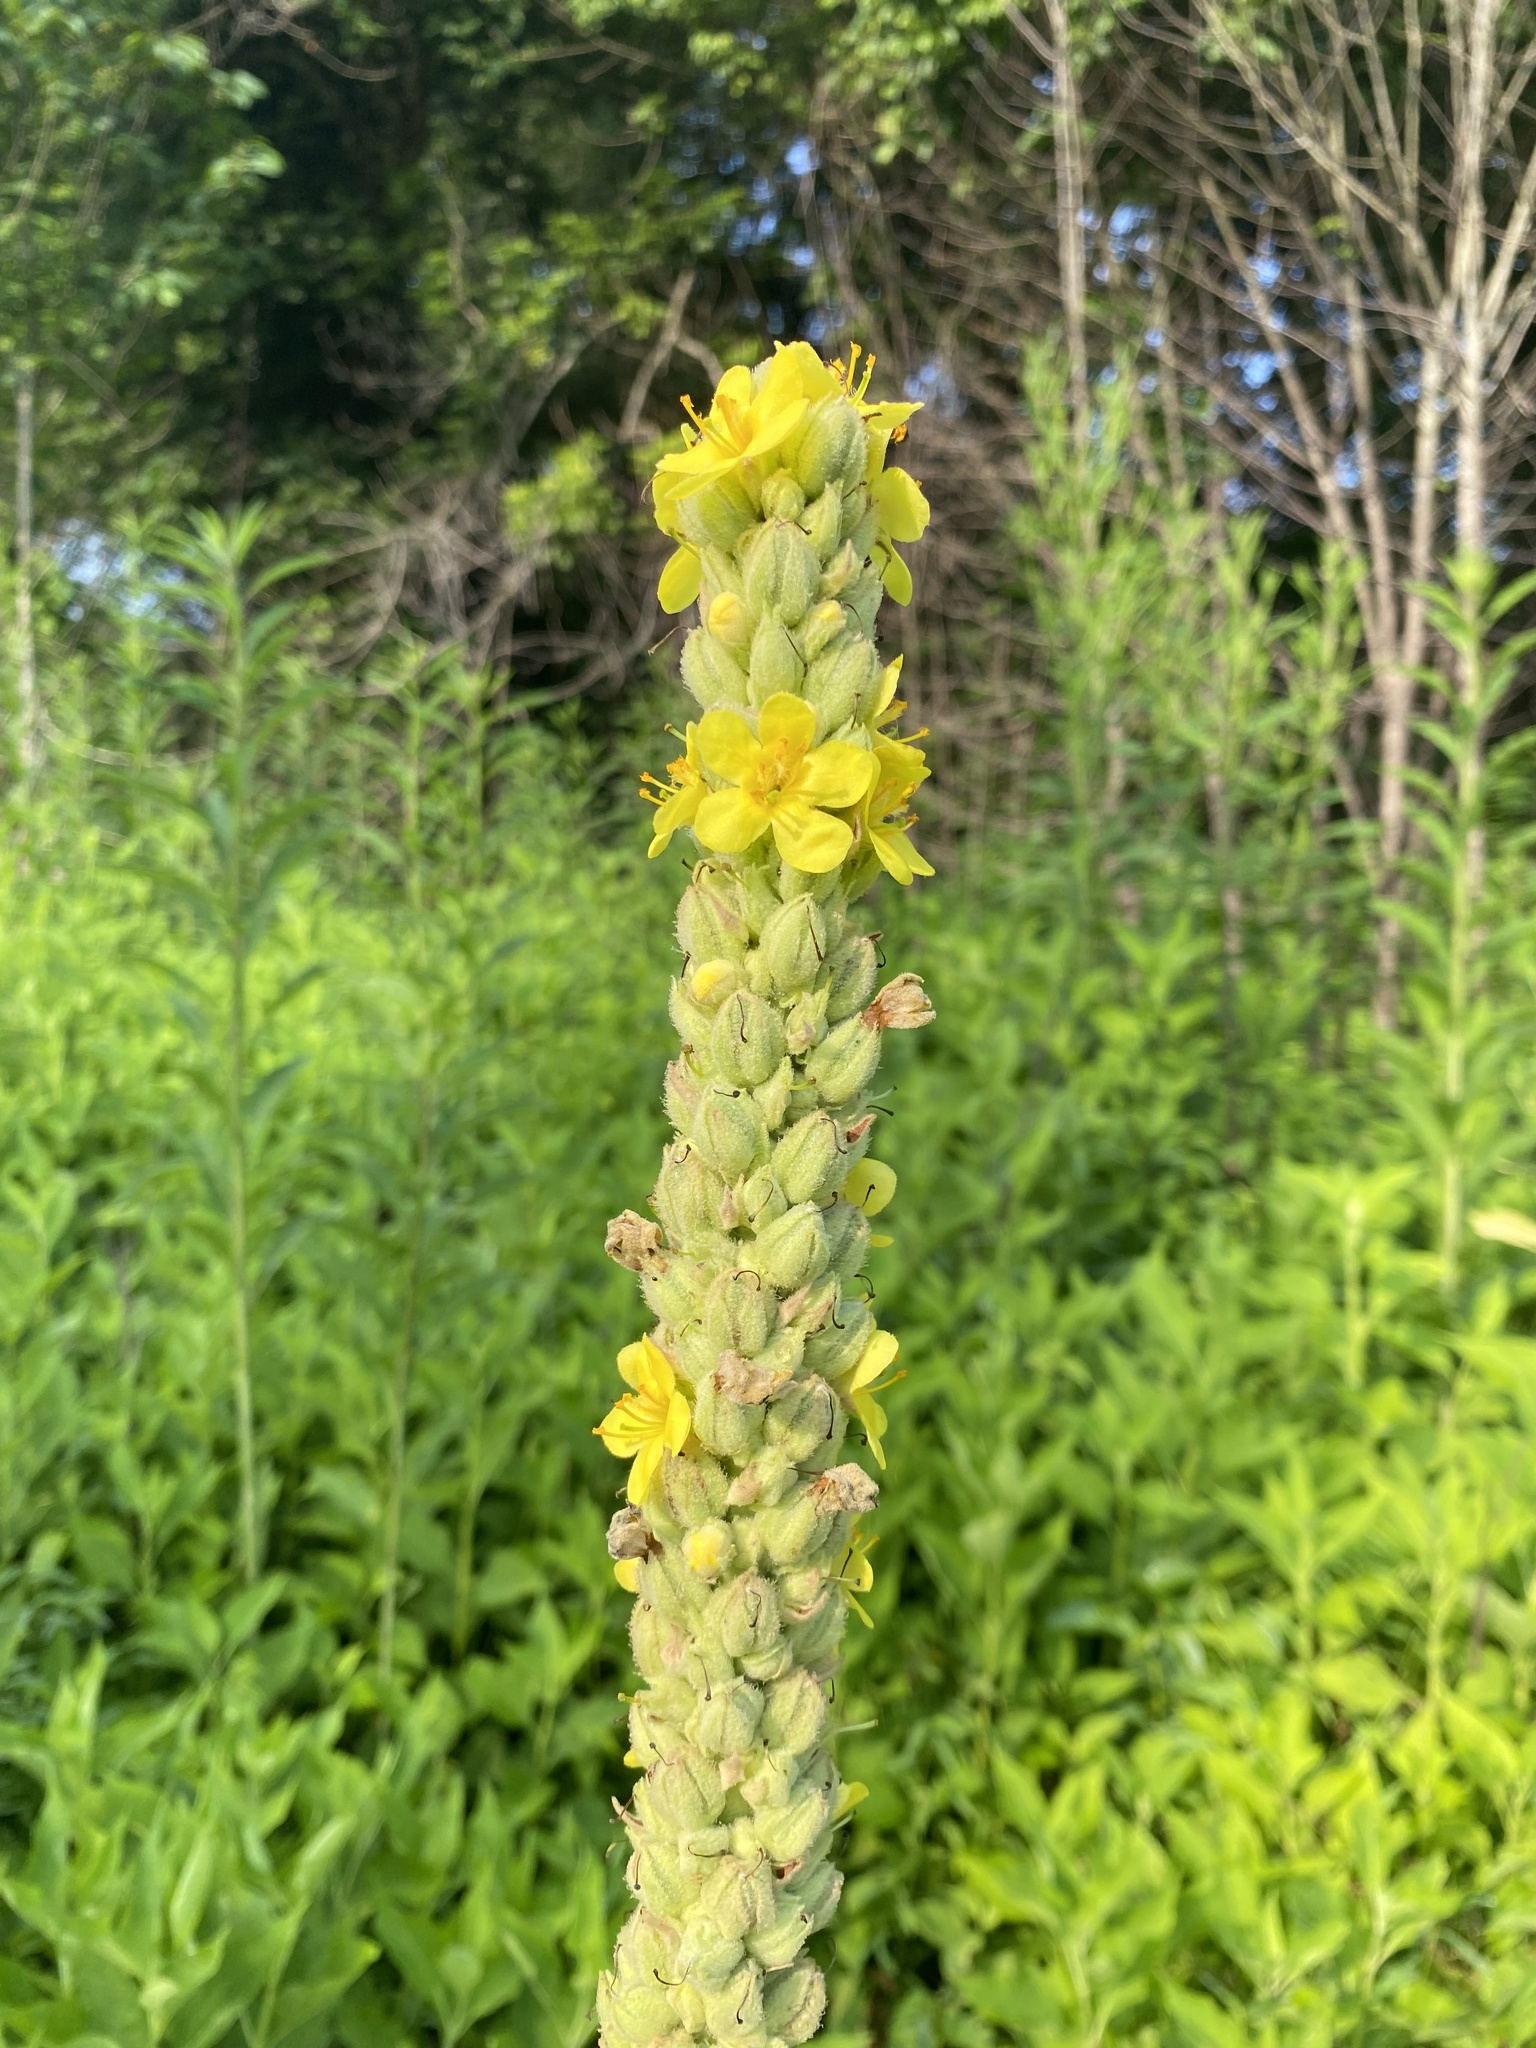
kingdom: Plantae
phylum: Tracheophyta
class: Magnoliopsida
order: Lamiales
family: Scrophulariaceae
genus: Verbascum
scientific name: Verbascum thapsus
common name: Common mullein
